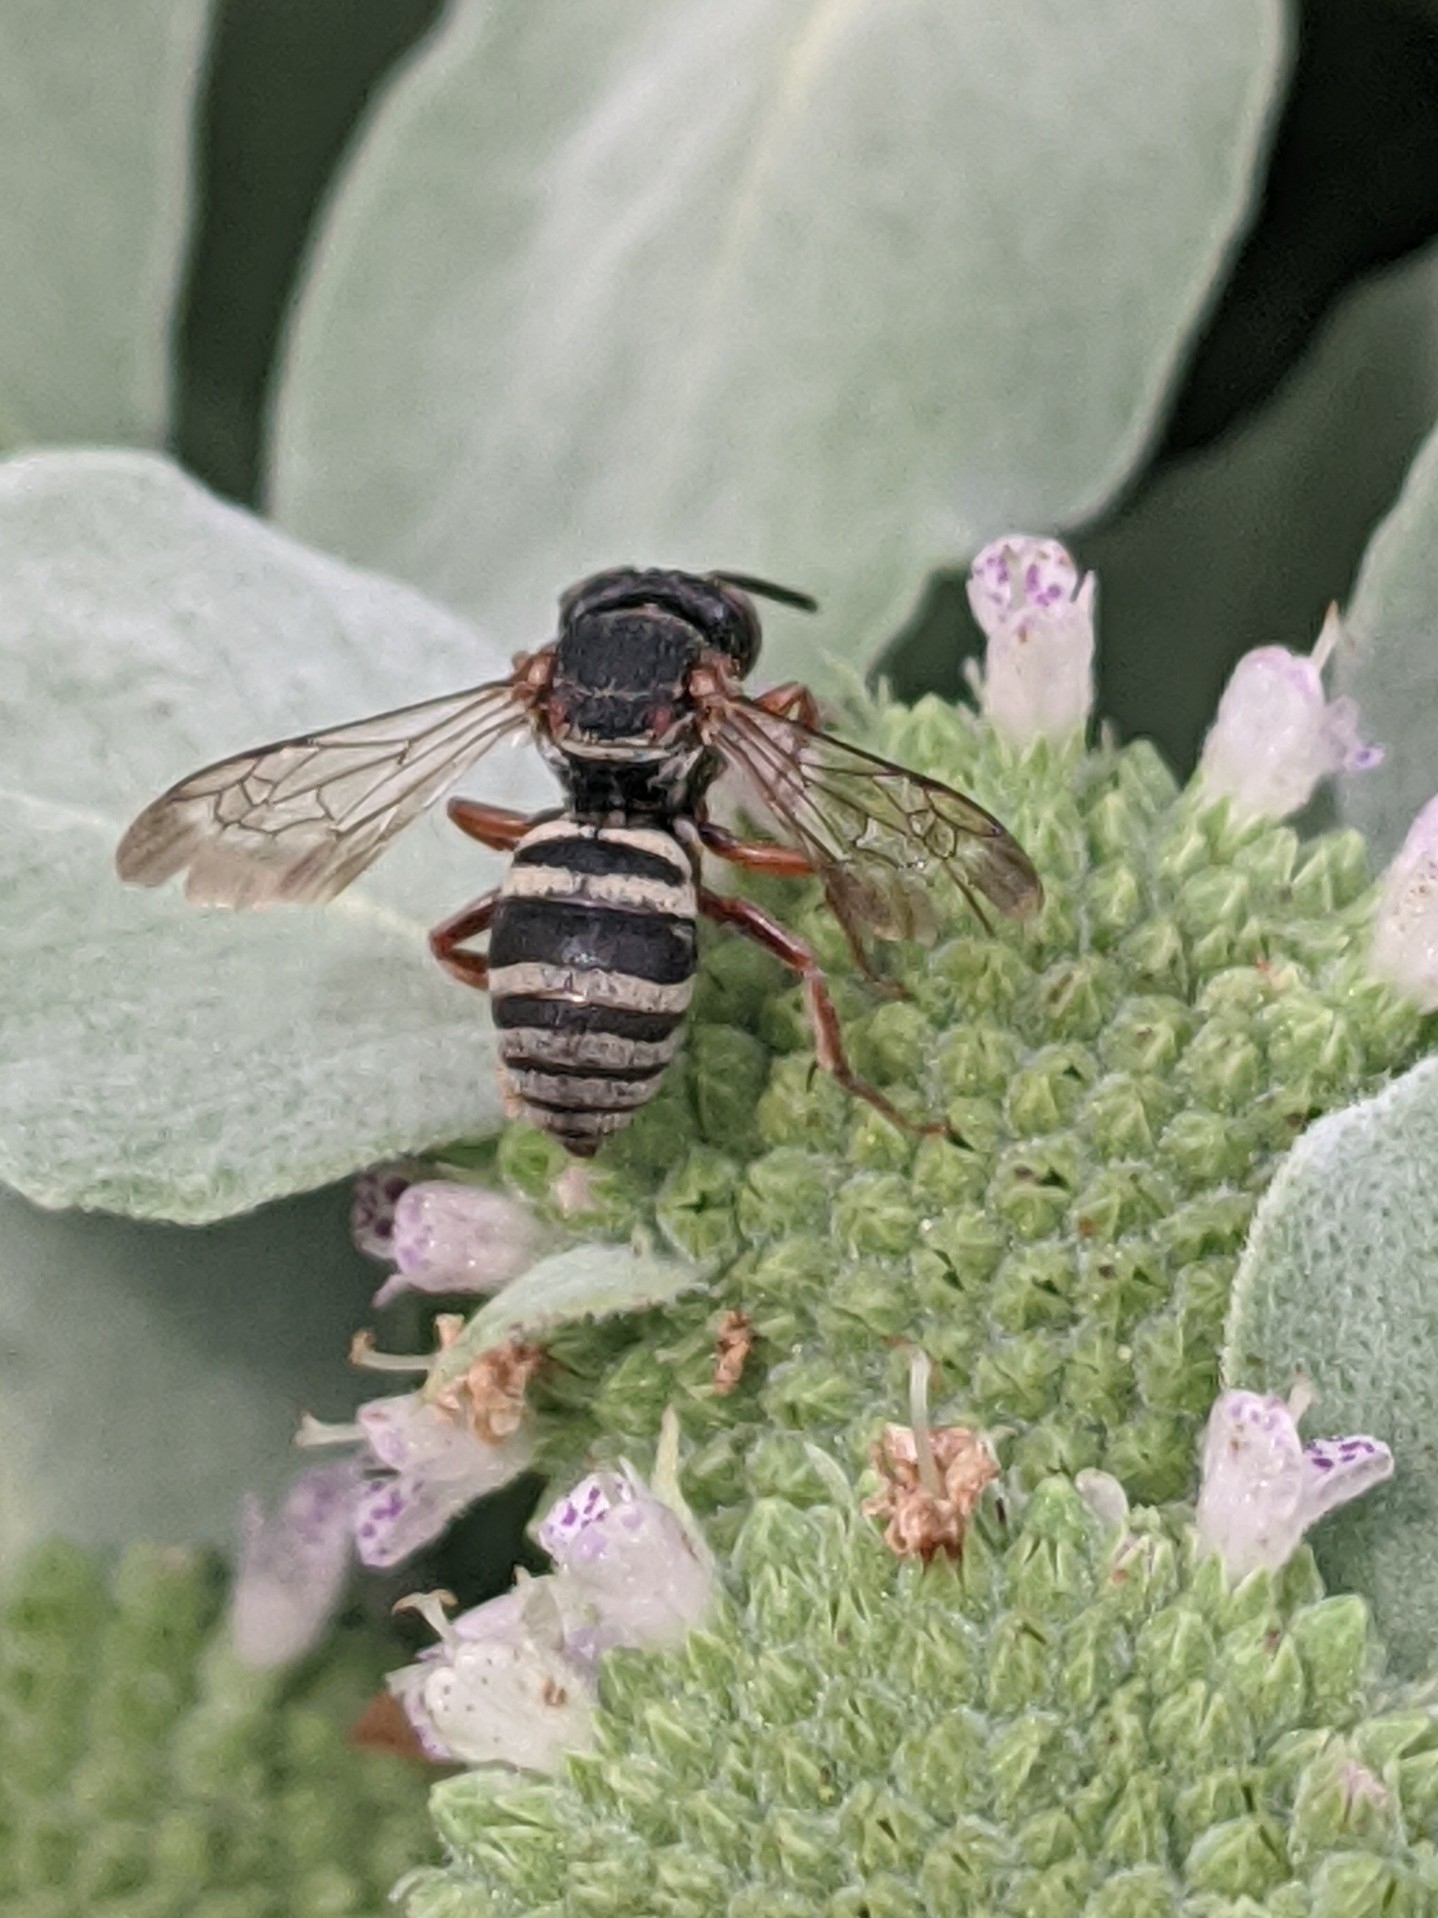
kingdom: Animalia
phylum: Arthropoda
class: Insecta
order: Hymenoptera
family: Apidae
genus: Epeolus
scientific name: Epeolus scutellaris
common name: Notch-backed cellophane-cuckoo bee
